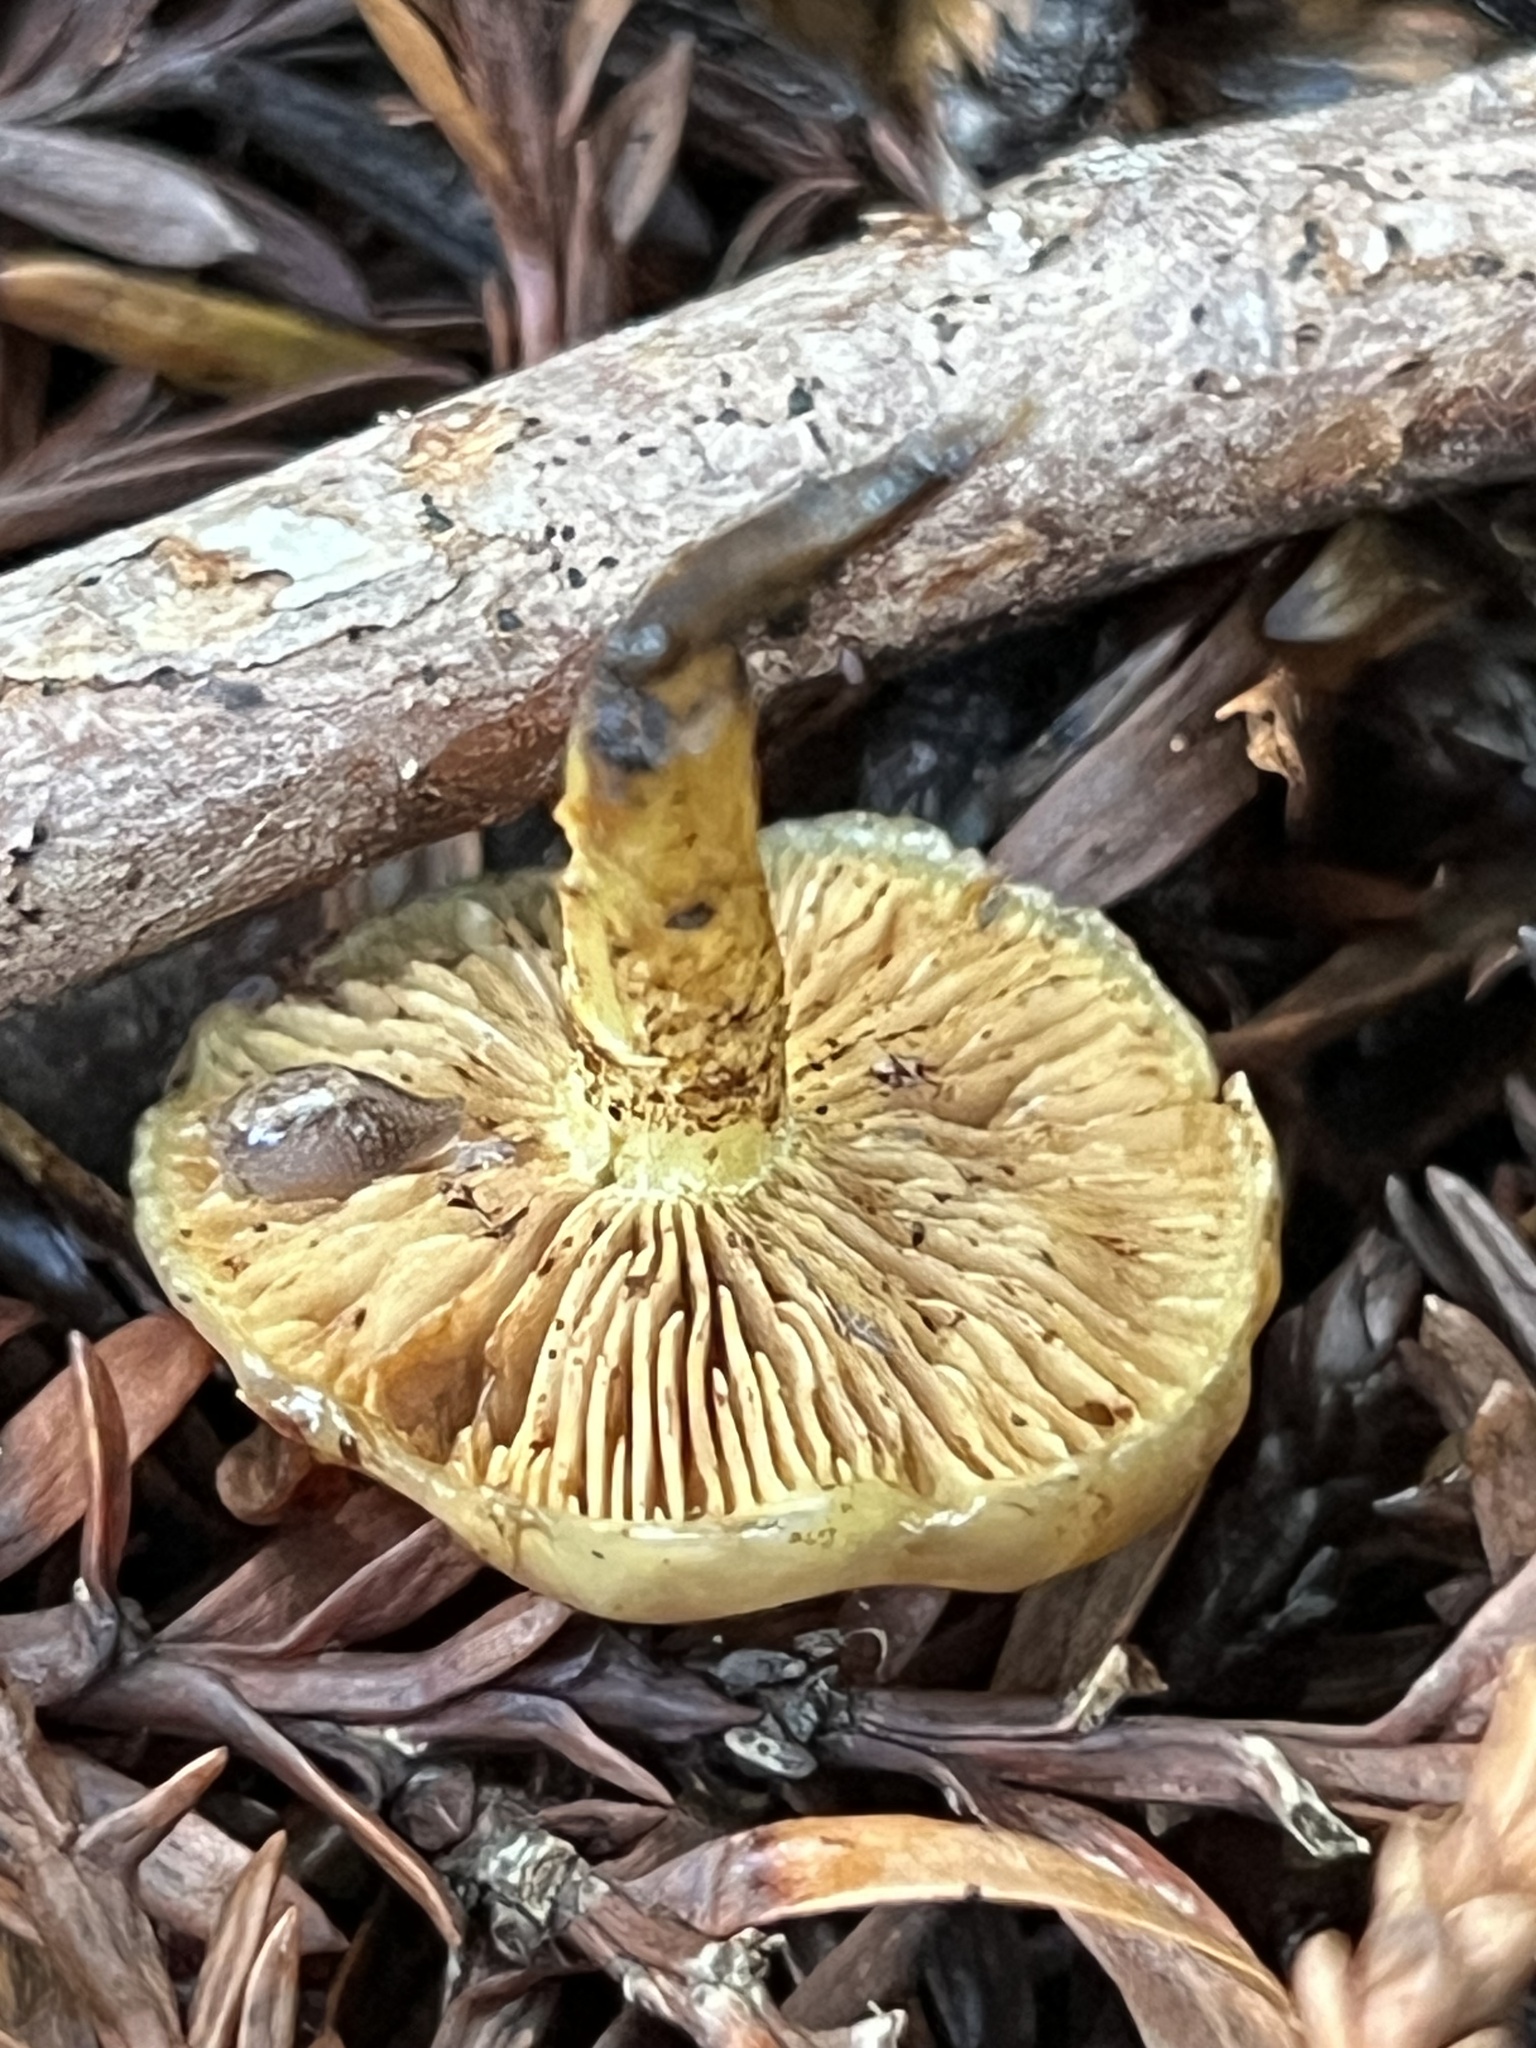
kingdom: Fungi
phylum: Basidiomycota
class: Agaricomycetes
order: Agaricales
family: Strophariaceae
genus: Pholiota
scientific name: Pholiota spumosa
